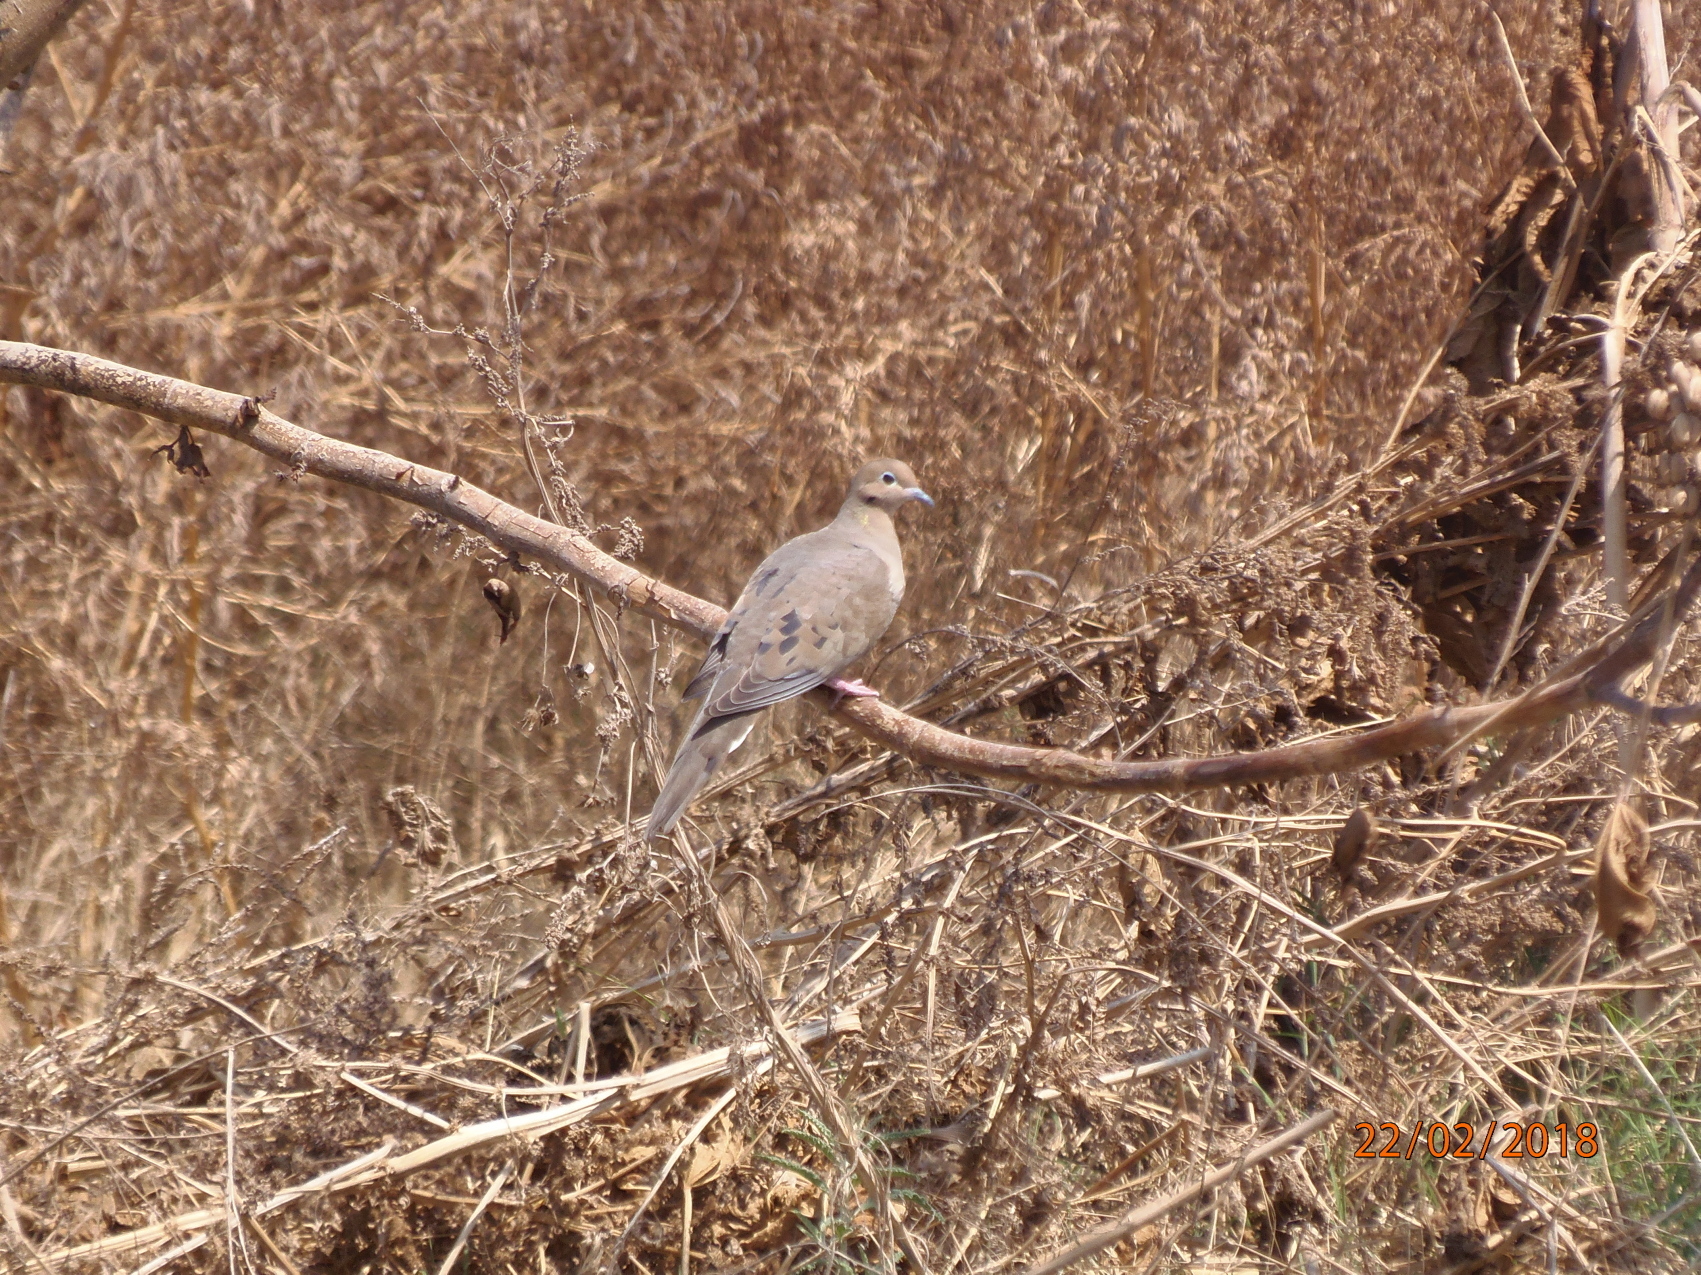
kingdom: Animalia
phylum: Chordata
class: Aves
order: Columbiformes
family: Columbidae
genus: Zenaida
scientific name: Zenaida macroura
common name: Mourning dove
